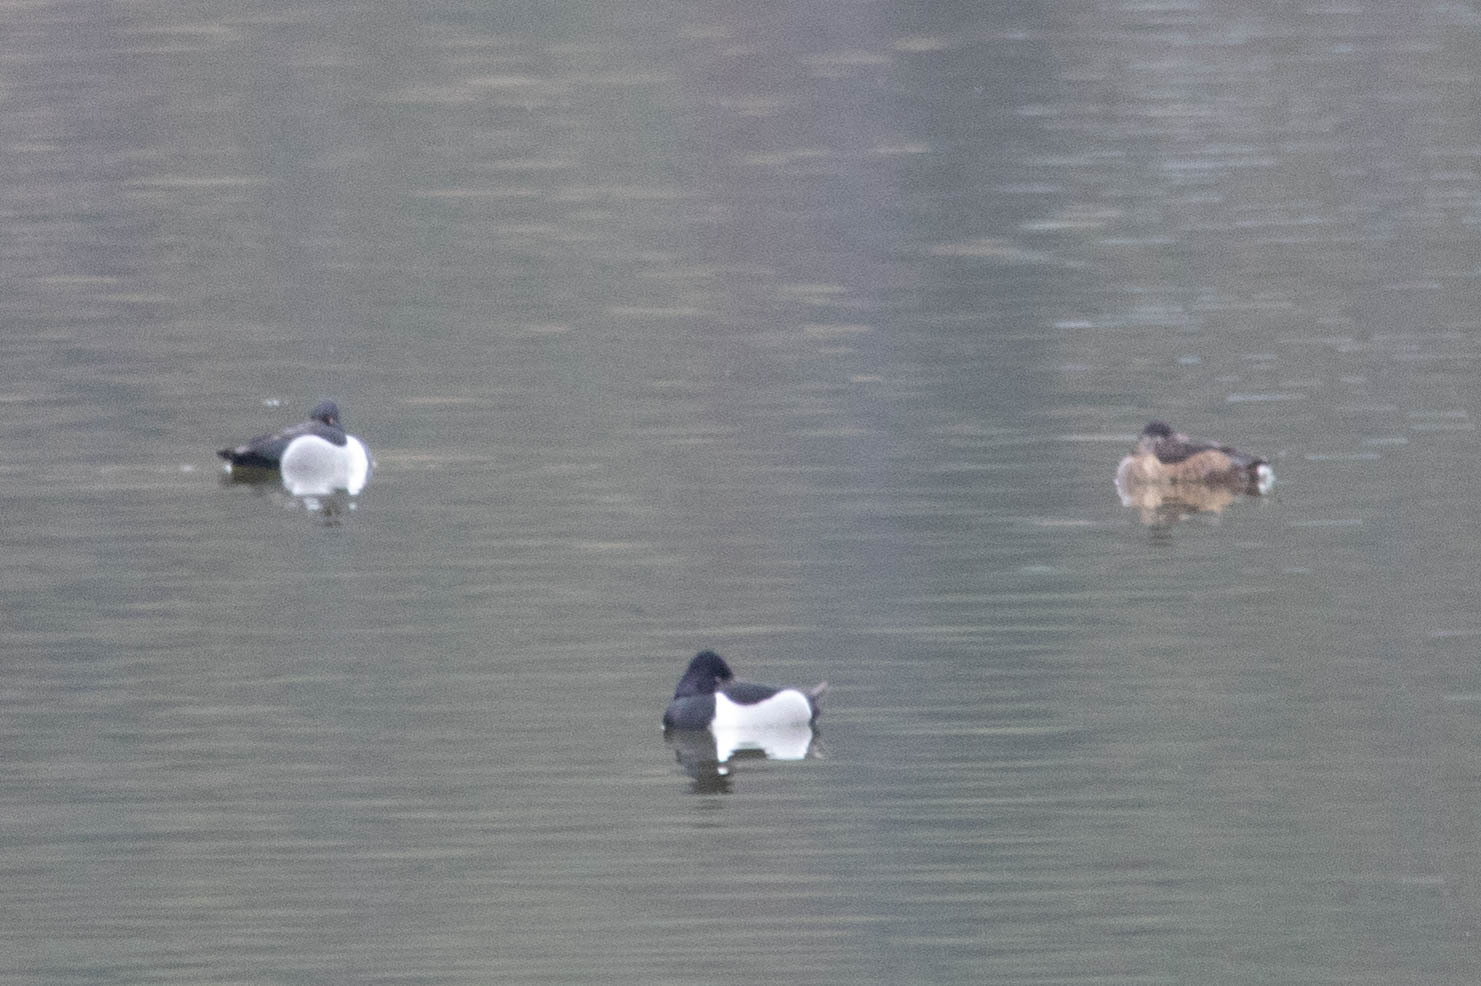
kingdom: Animalia
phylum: Chordata
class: Aves
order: Anseriformes
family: Anatidae
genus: Aythya
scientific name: Aythya collaris
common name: Ring-necked duck
